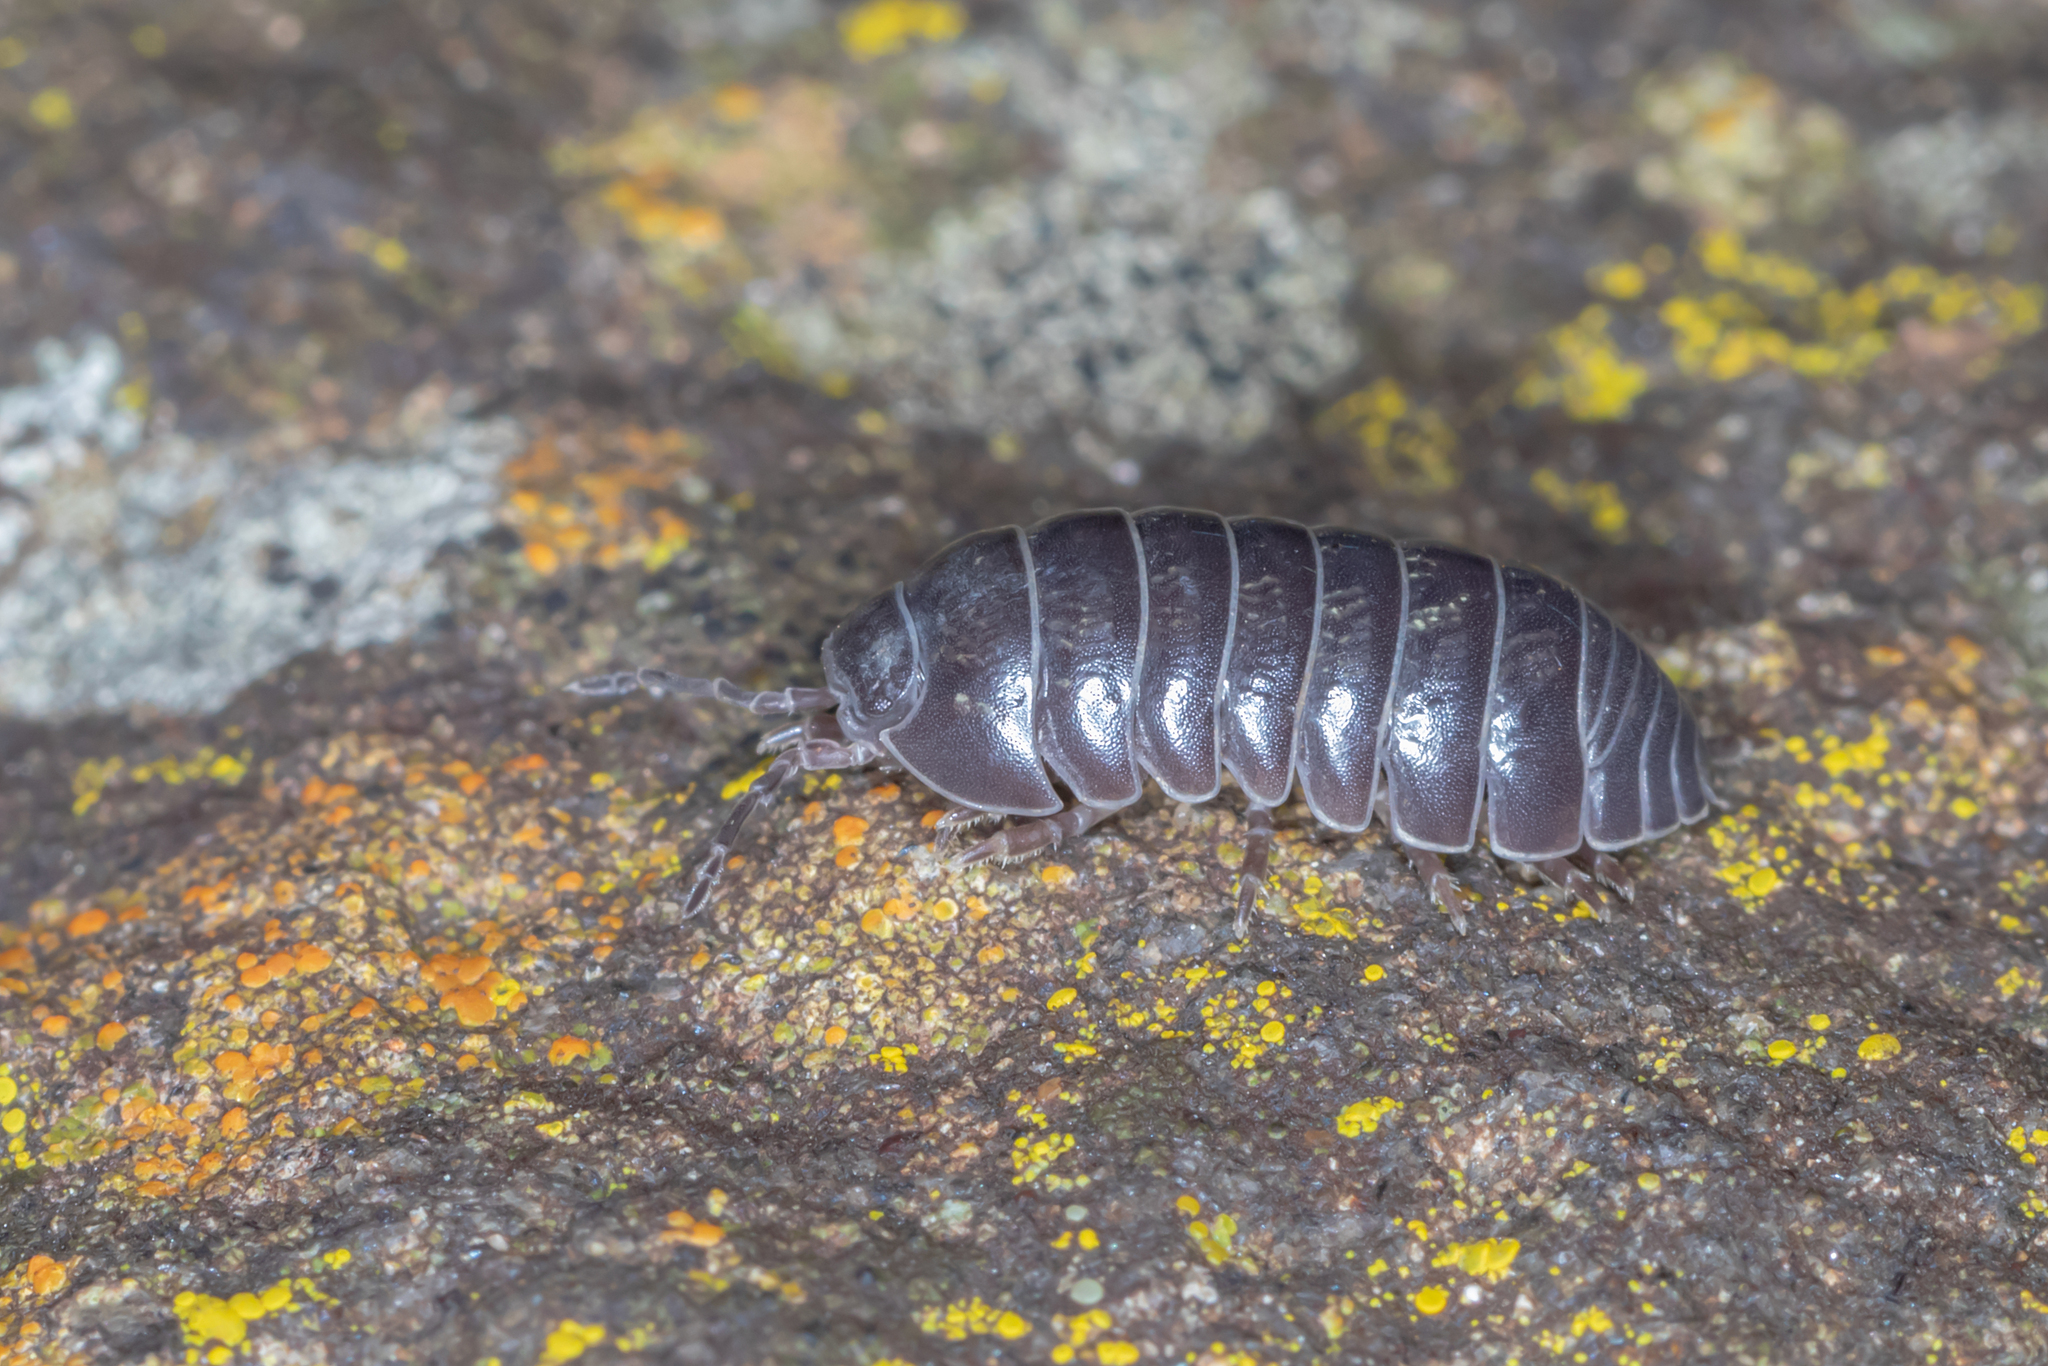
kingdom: Animalia
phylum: Arthropoda
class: Malacostraca
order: Isopoda
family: Armadillidiidae
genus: Armadillidium
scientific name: Armadillidium vulgare
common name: Common pill woodlouse
